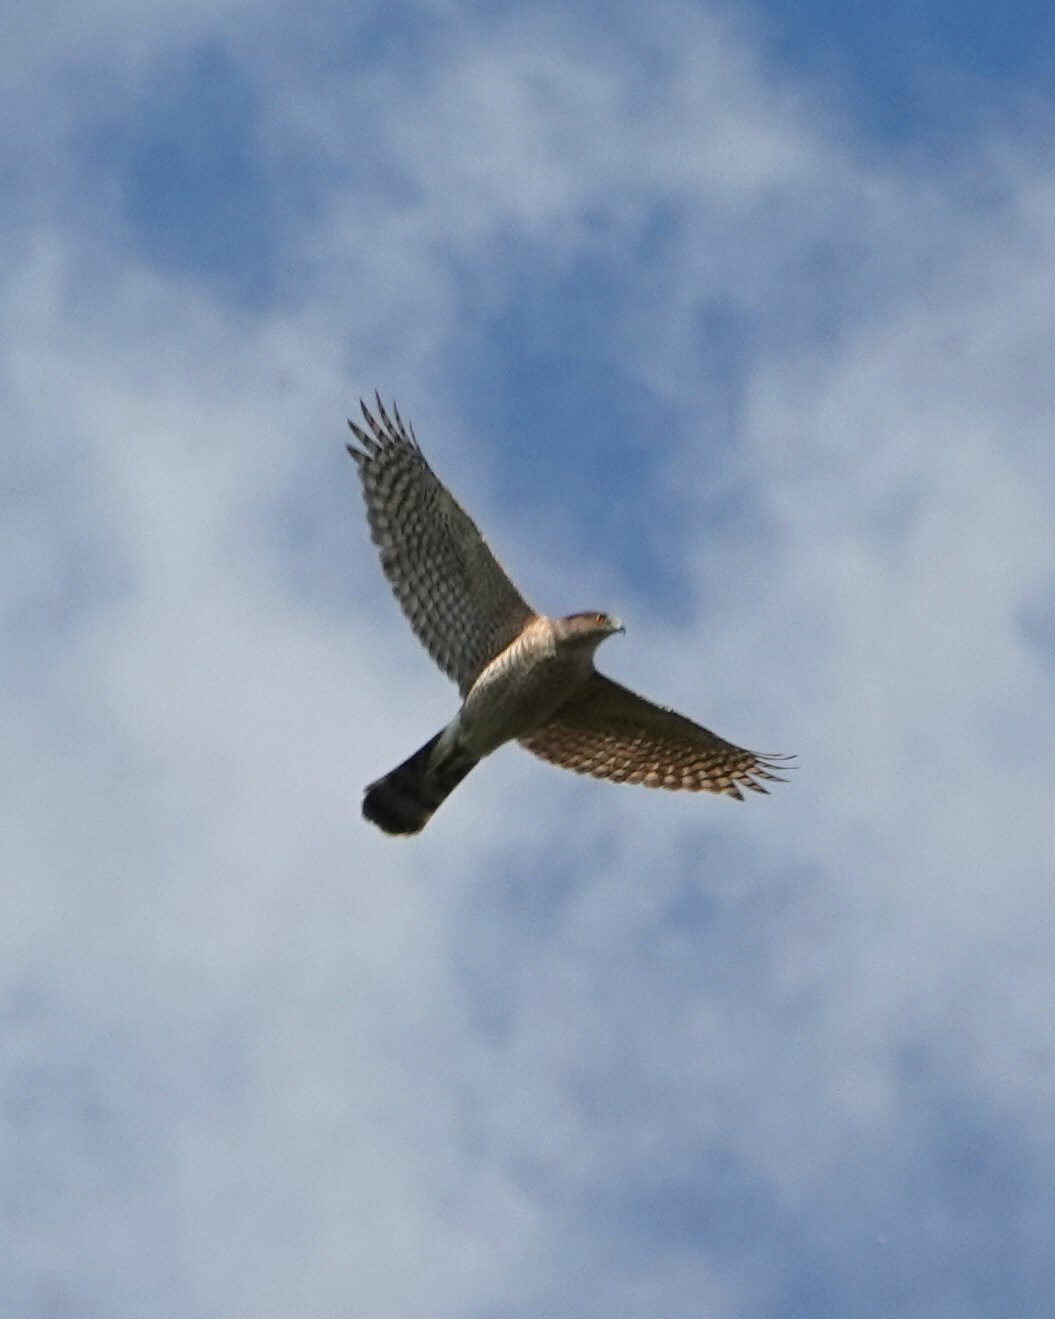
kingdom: Animalia
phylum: Chordata
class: Aves
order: Accipitriformes
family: Accipitridae
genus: Accipiter
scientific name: Accipiter cooperii
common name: Cooper's hawk
